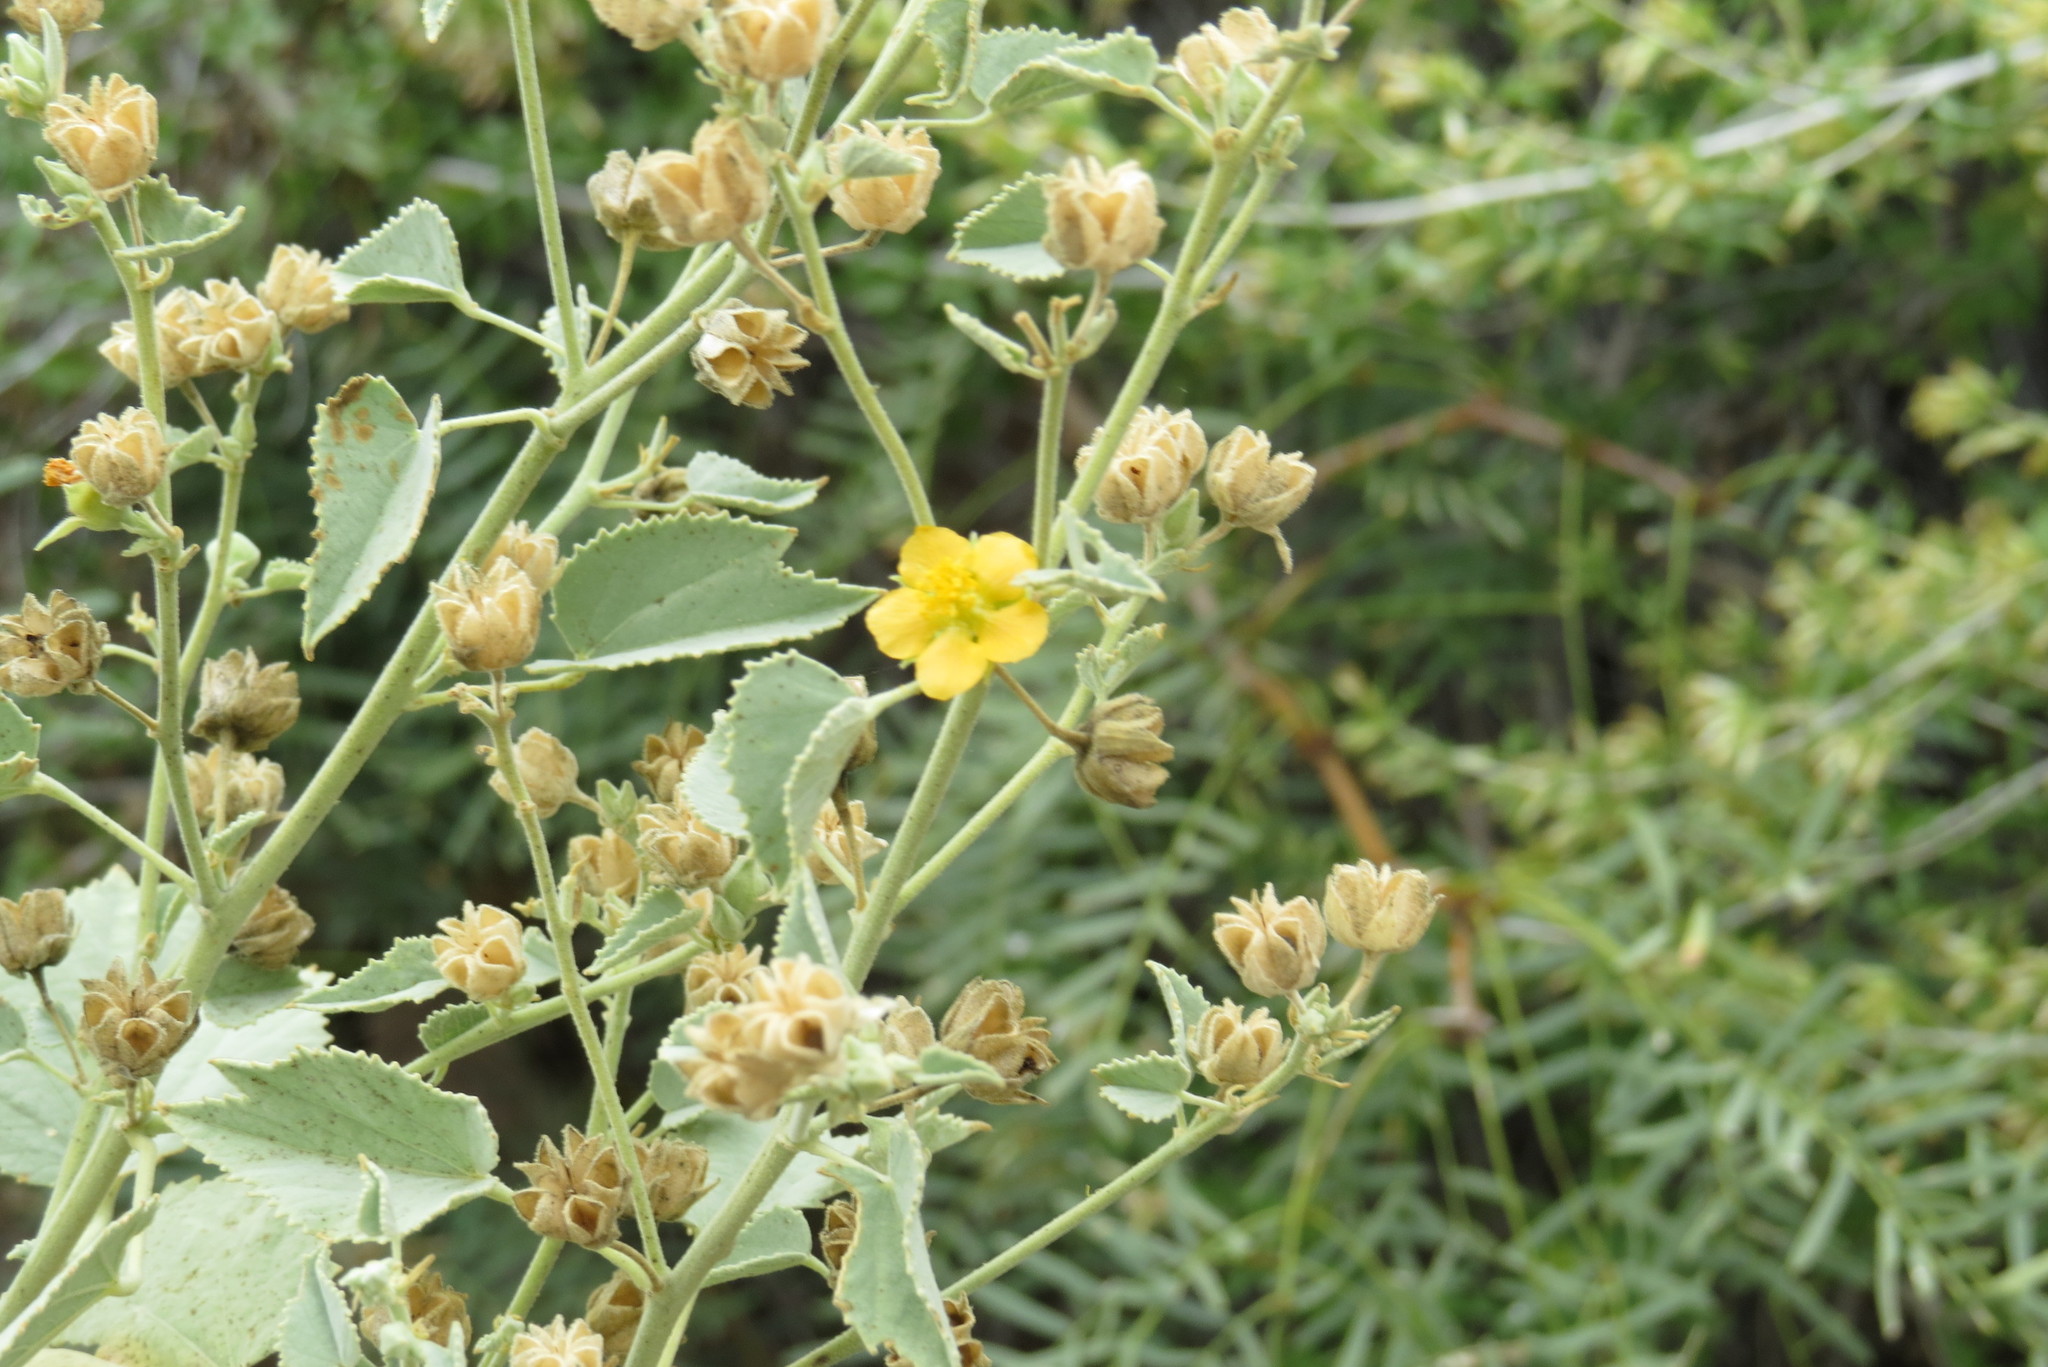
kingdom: Plantae
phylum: Tracheophyta
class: Magnoliopsida
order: Malvales
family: Malvaceae
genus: Abutilon
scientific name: Abutilon malacum
